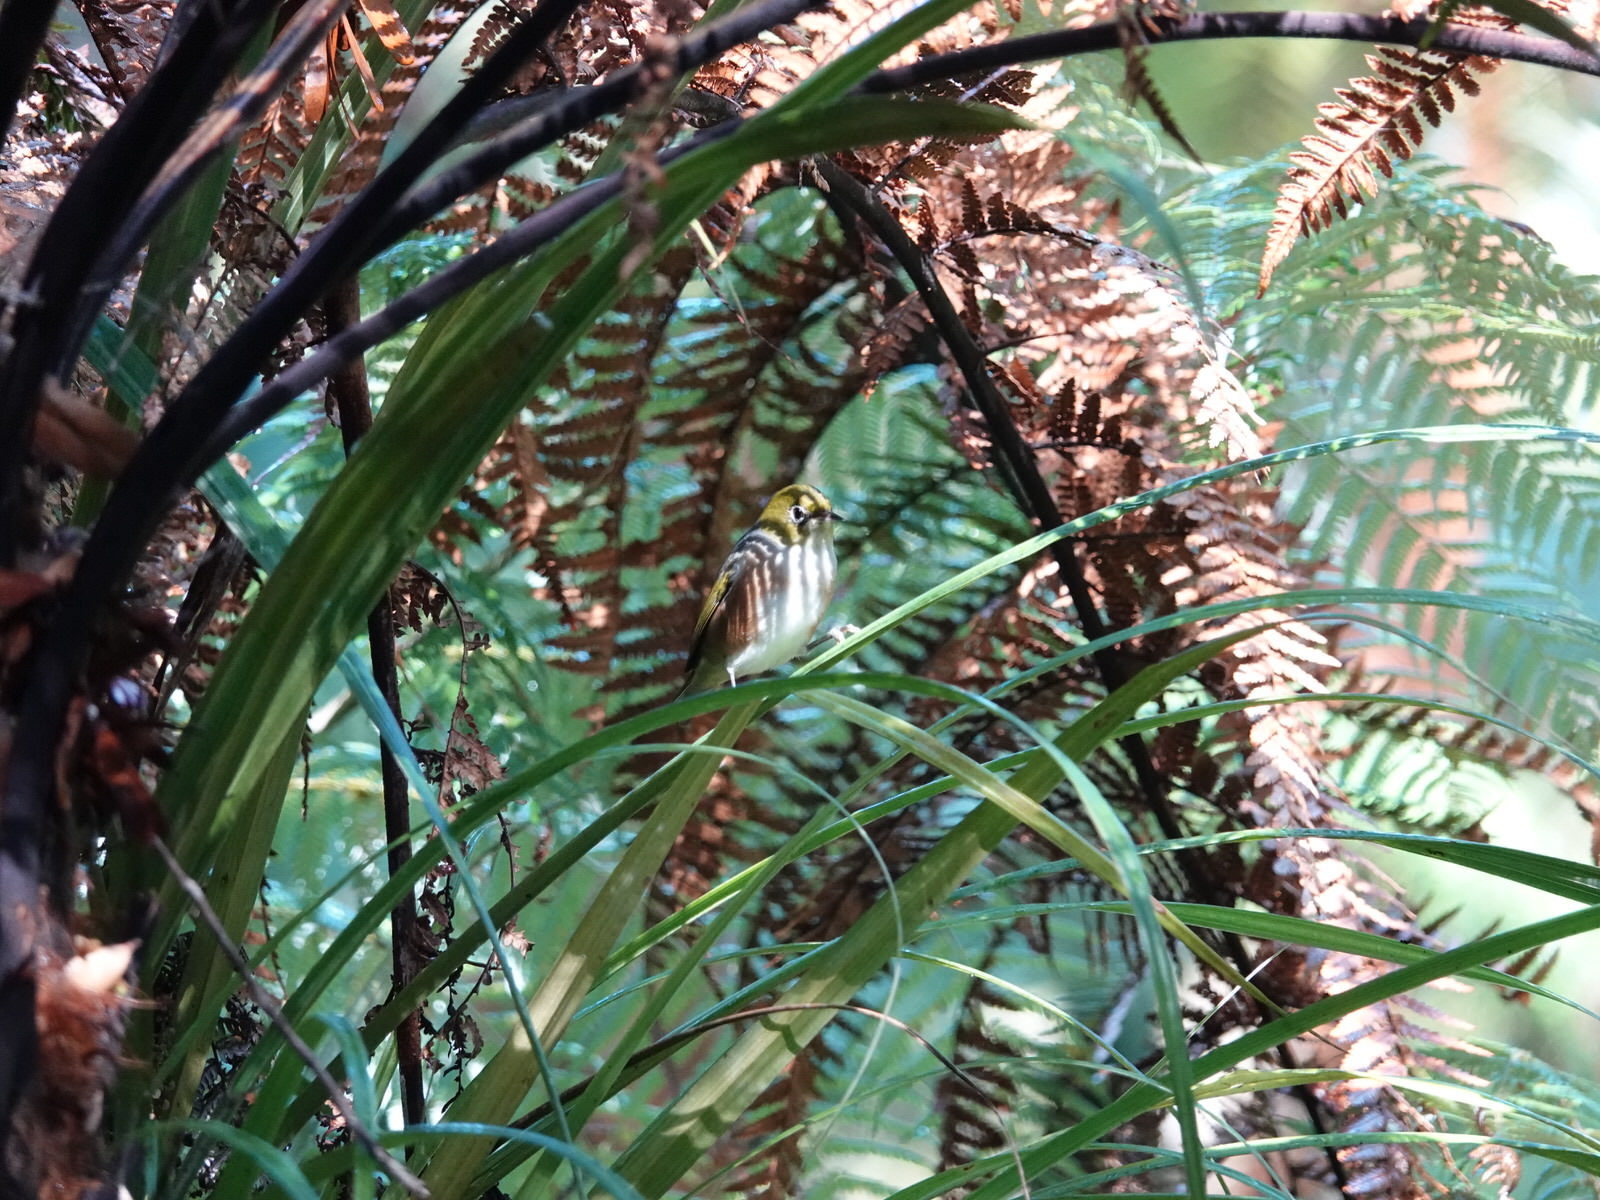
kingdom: Animalia
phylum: Chordata
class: Aves
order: Passeriformes
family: Zosteropidae
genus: Zosterops
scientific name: Zosterops lateralis
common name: Silvereye
